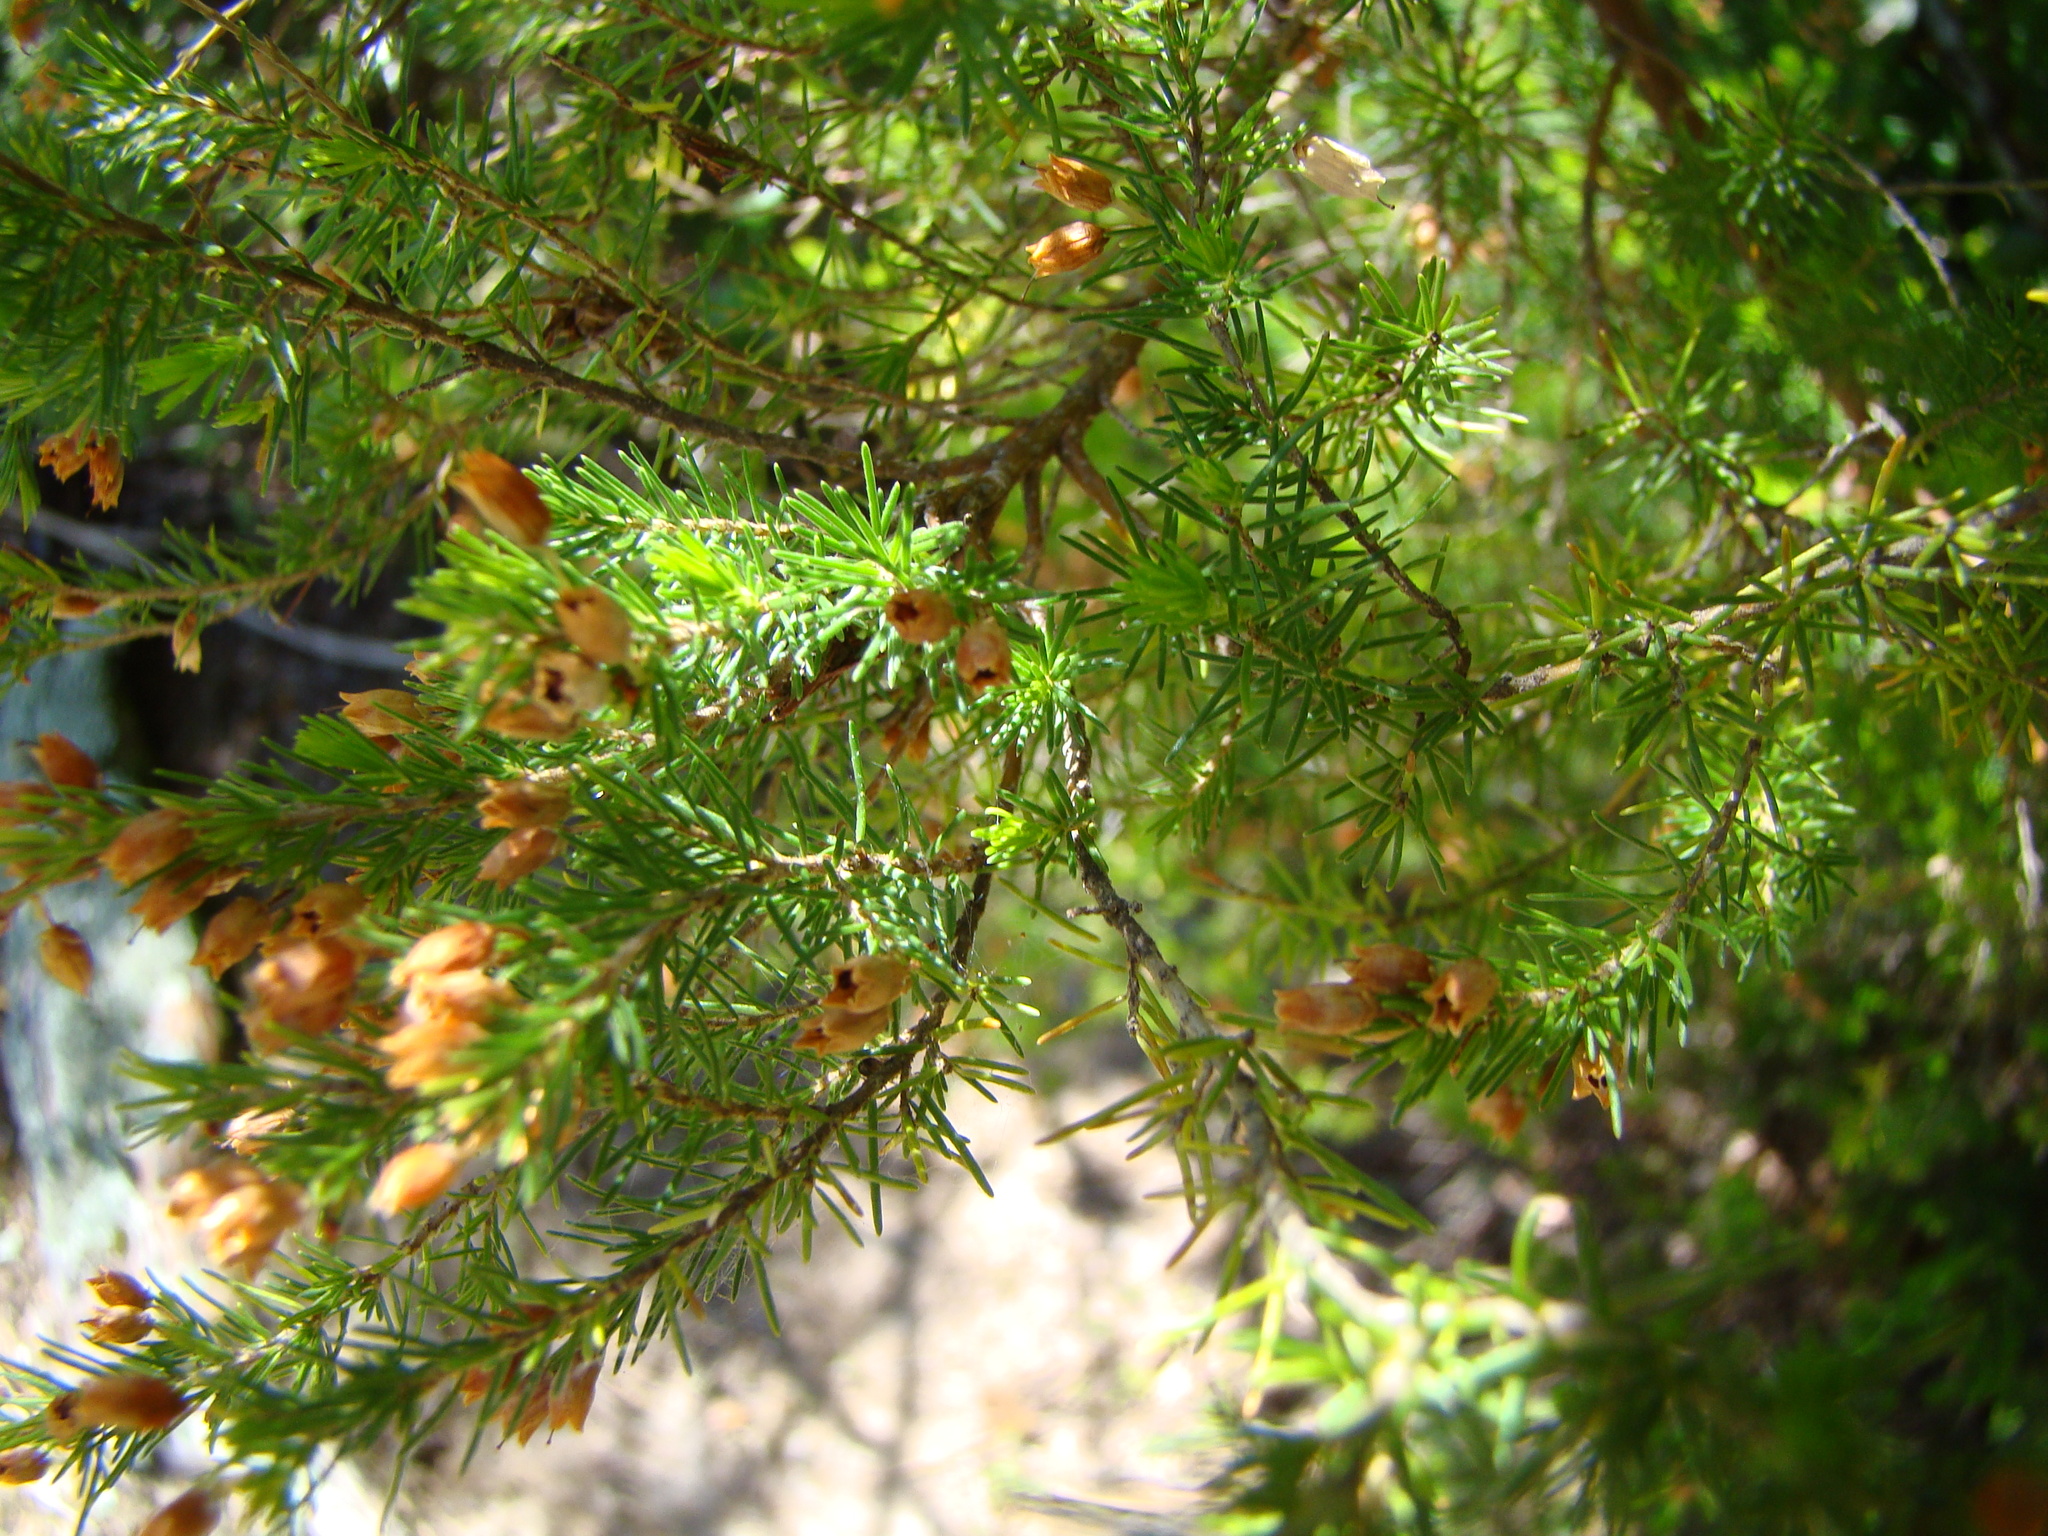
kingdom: Plantae
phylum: Tracheophyta
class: Magnoliopsida
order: Ericales
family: Ericaceae
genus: Erica
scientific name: Erica lusitanica
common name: Spanish heath
